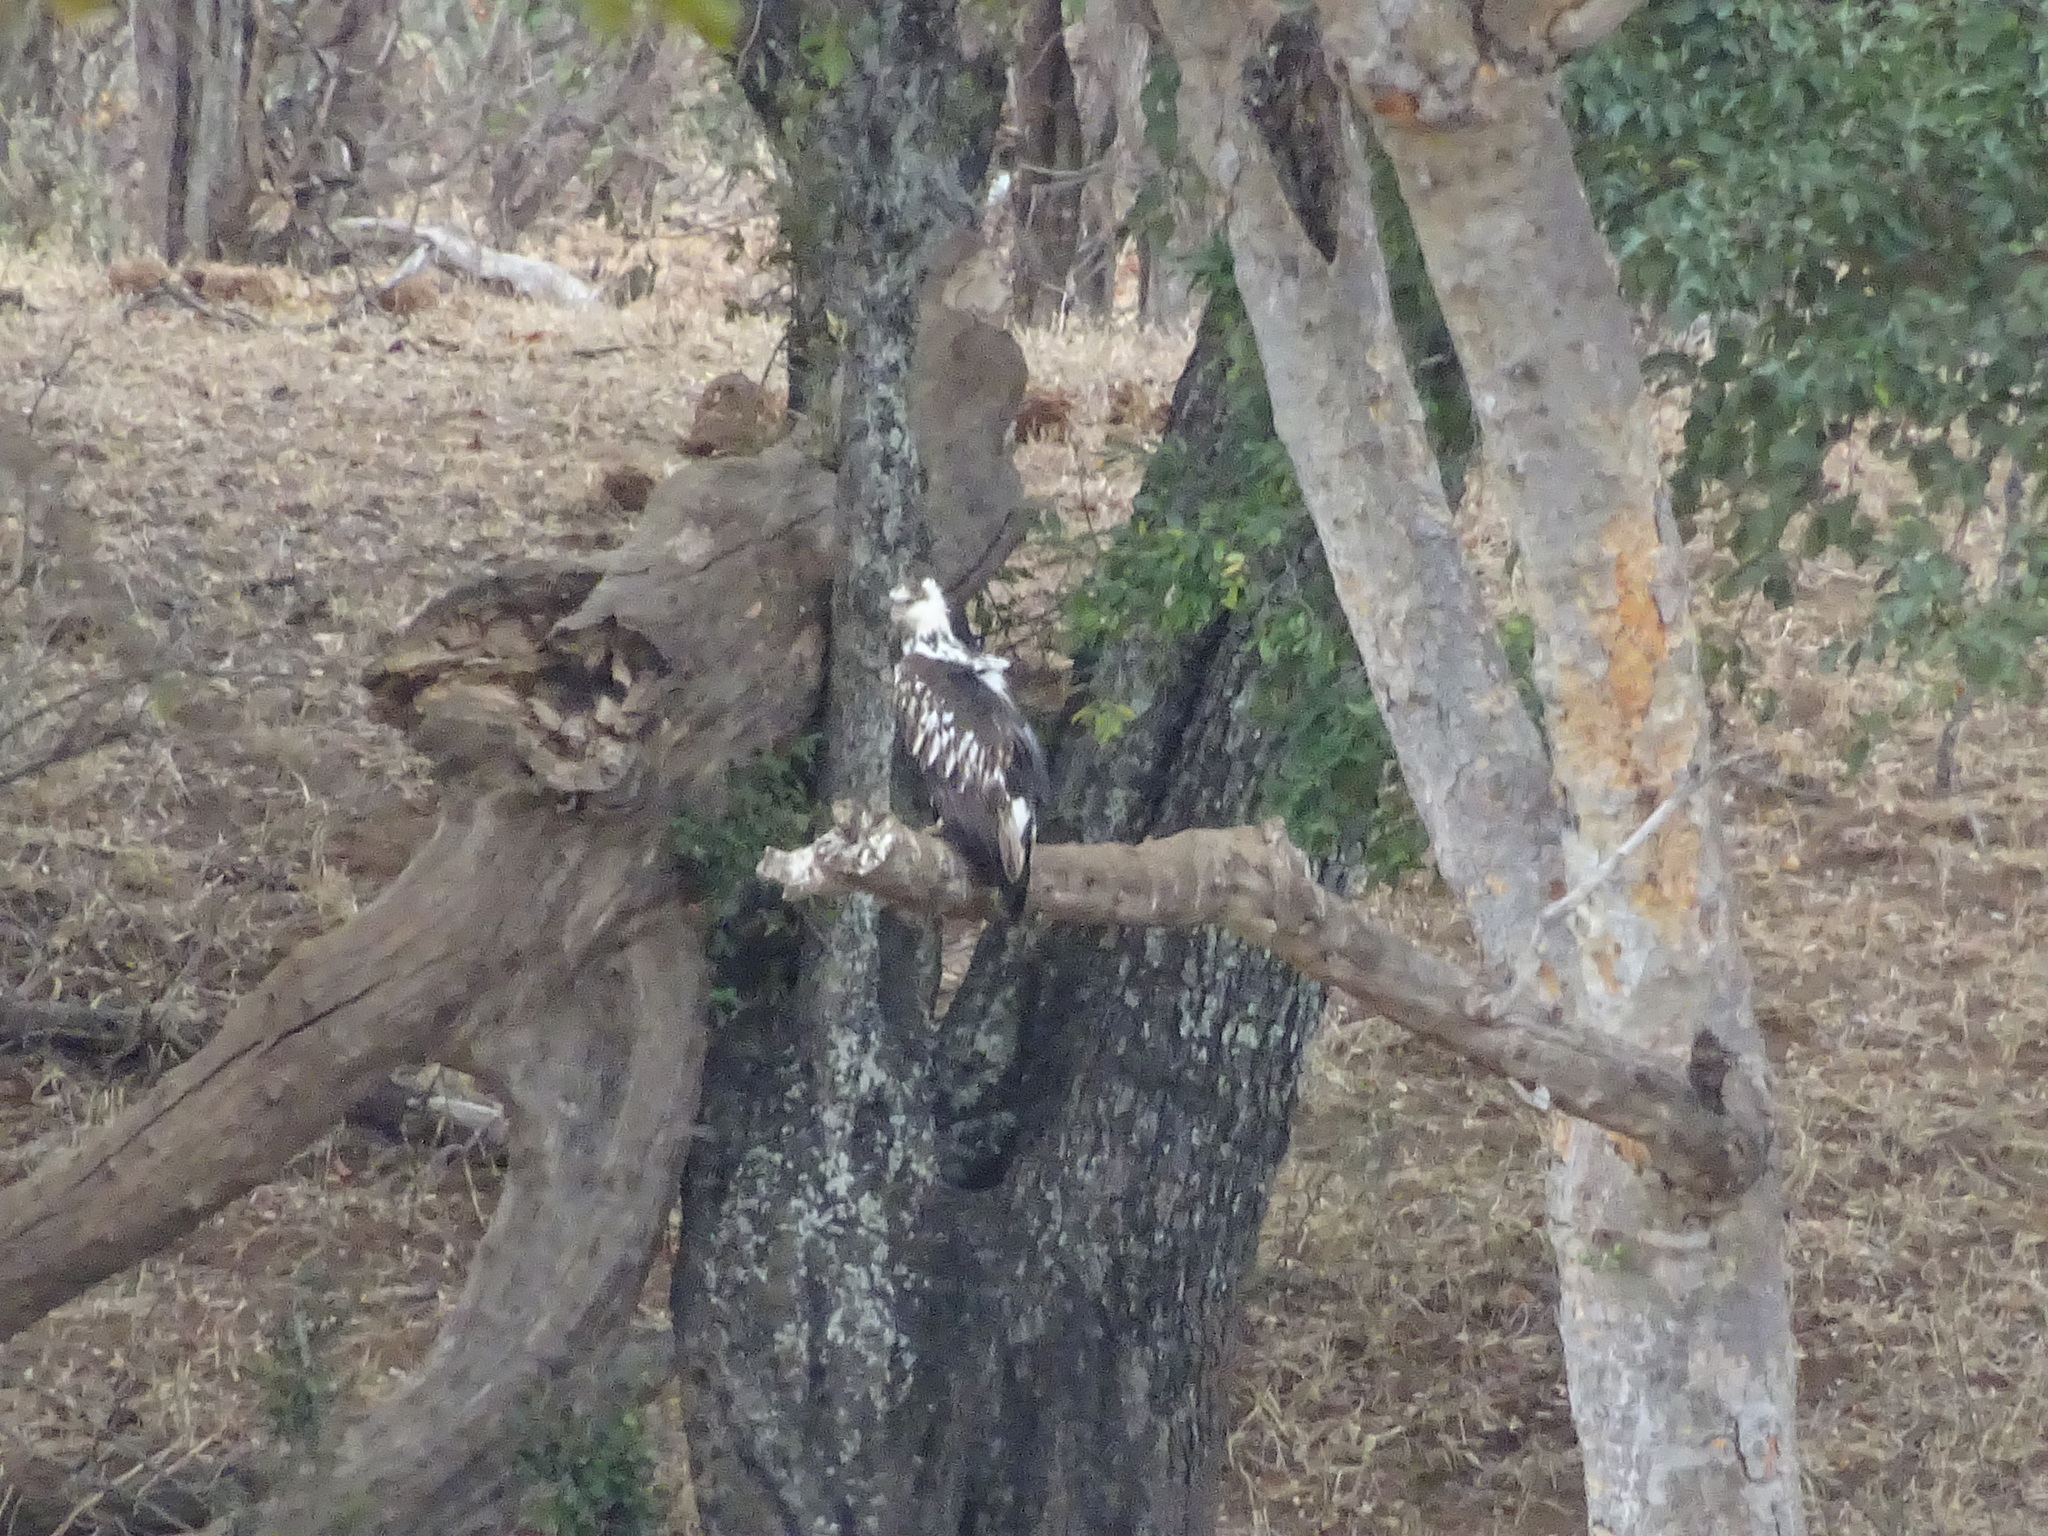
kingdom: Animalia
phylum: Chordata
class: Aves
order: Accipitriformes
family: Accipitridae
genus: Haliaeetus
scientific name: Haliaeetus vocifer
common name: African fish eagle
